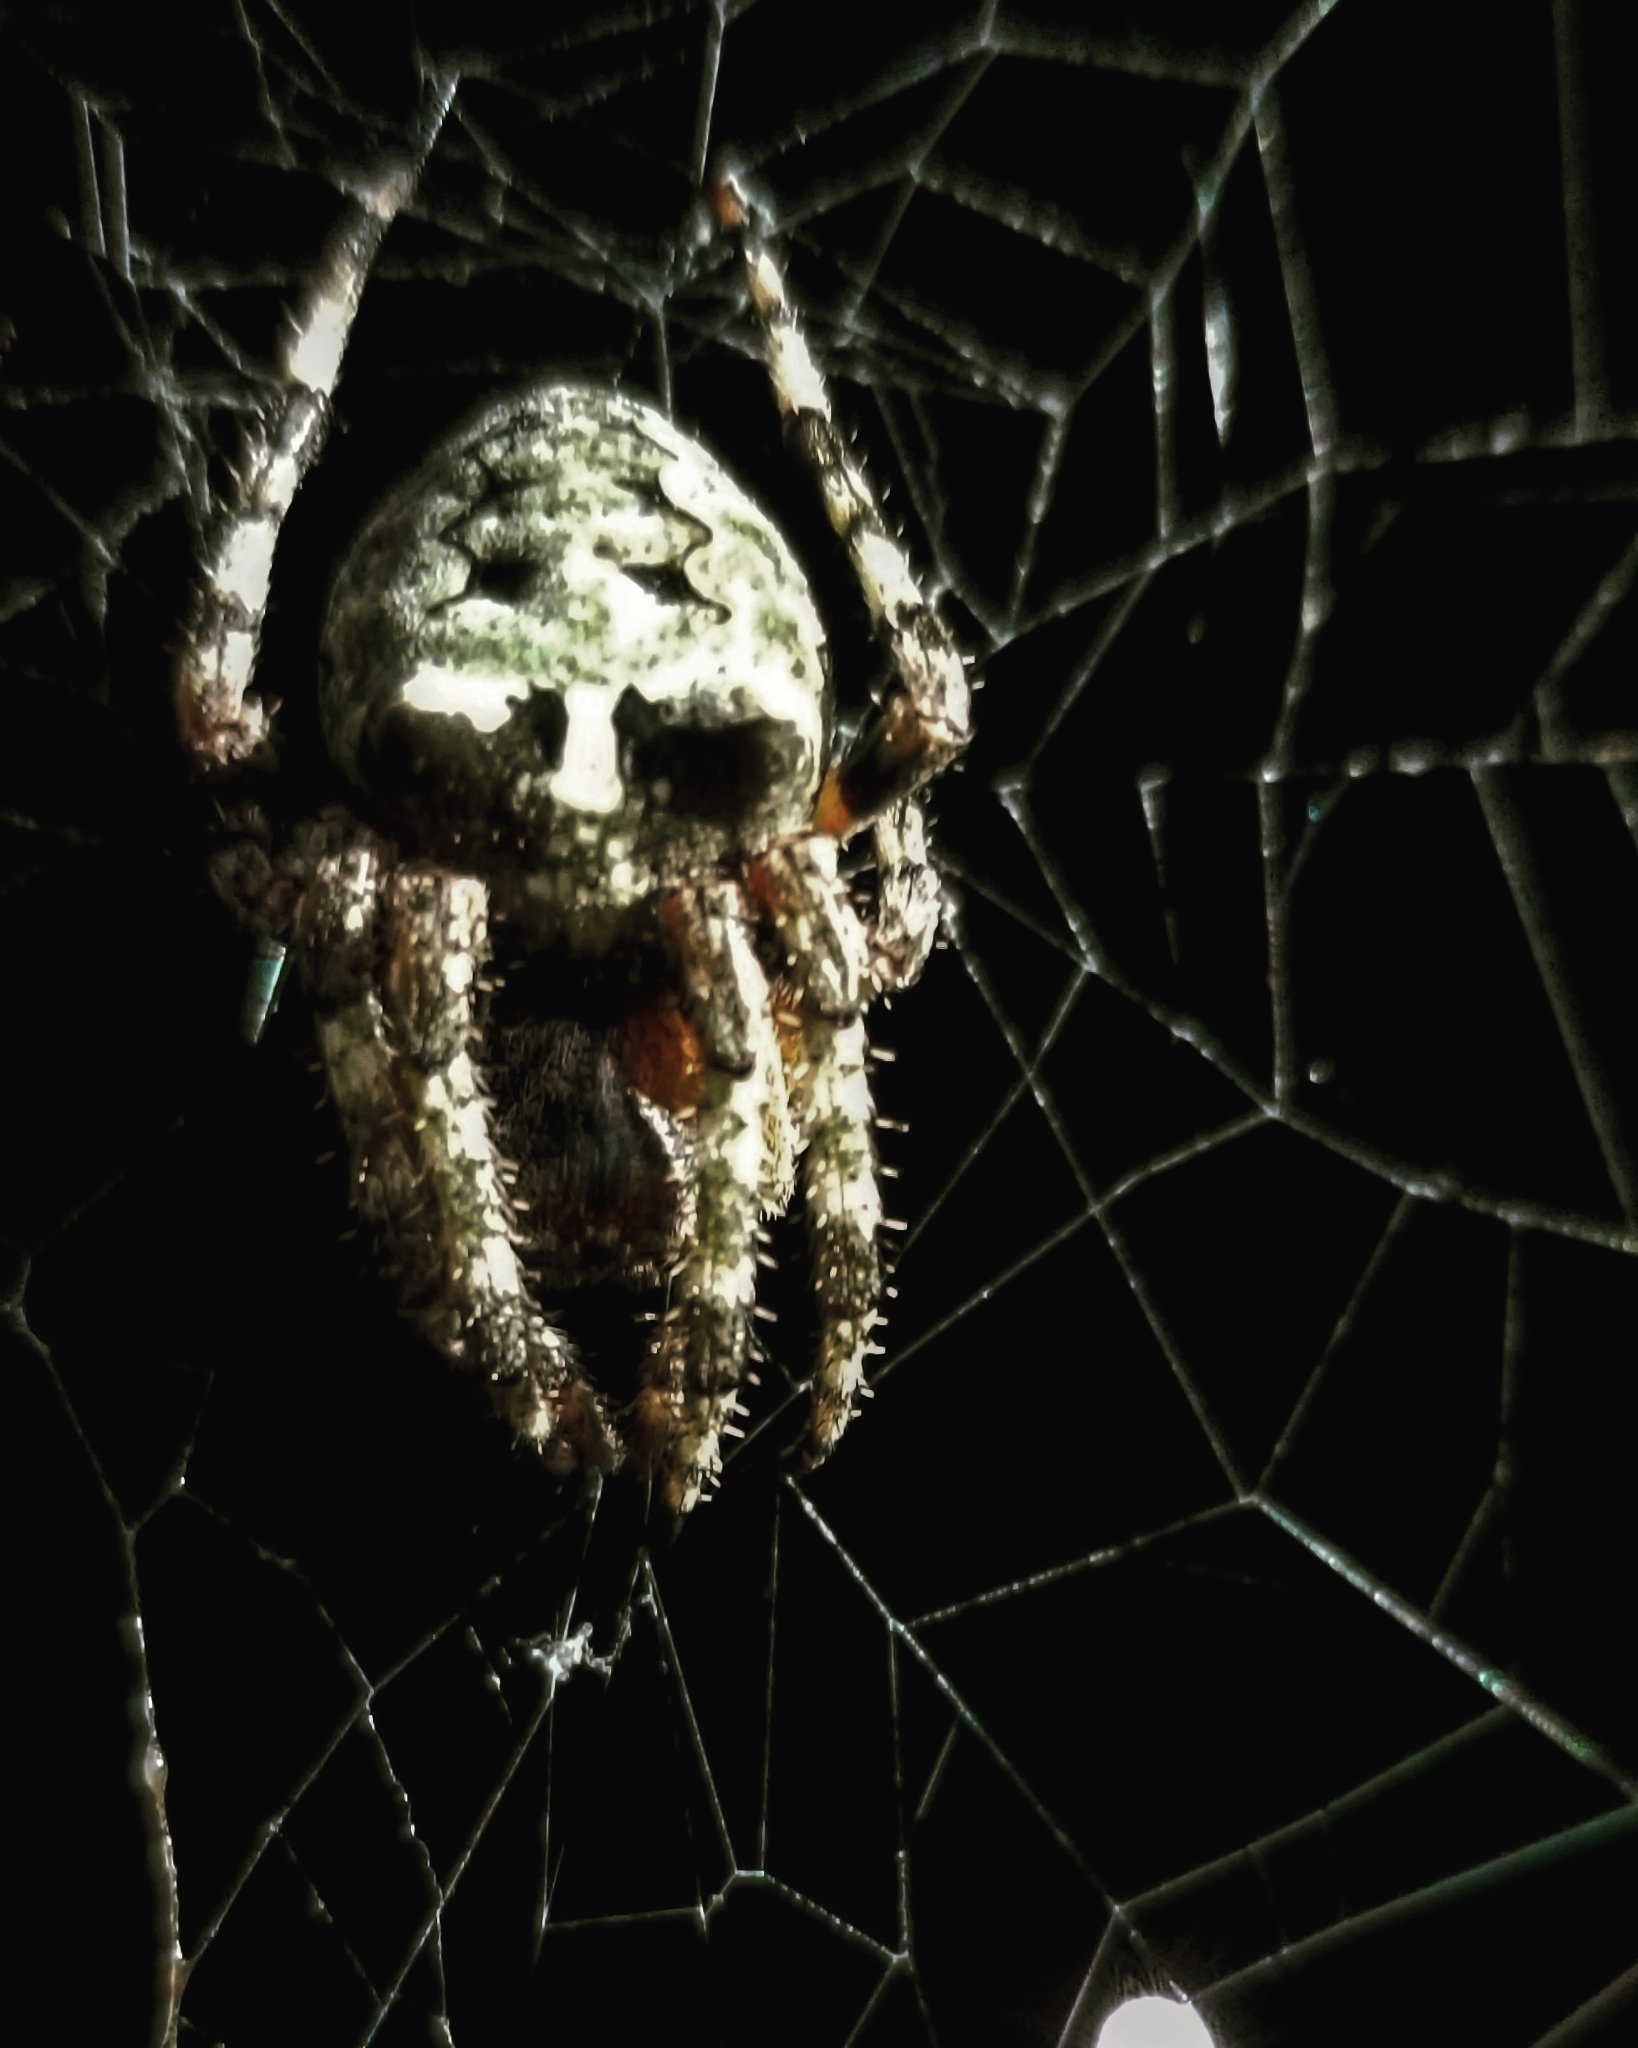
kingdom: Animalia
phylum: Arthropoda
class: Arachnida
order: Araneae
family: Araneidae
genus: Araneus
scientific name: Araneus bicentenarius
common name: Giant lichen orbweaver
